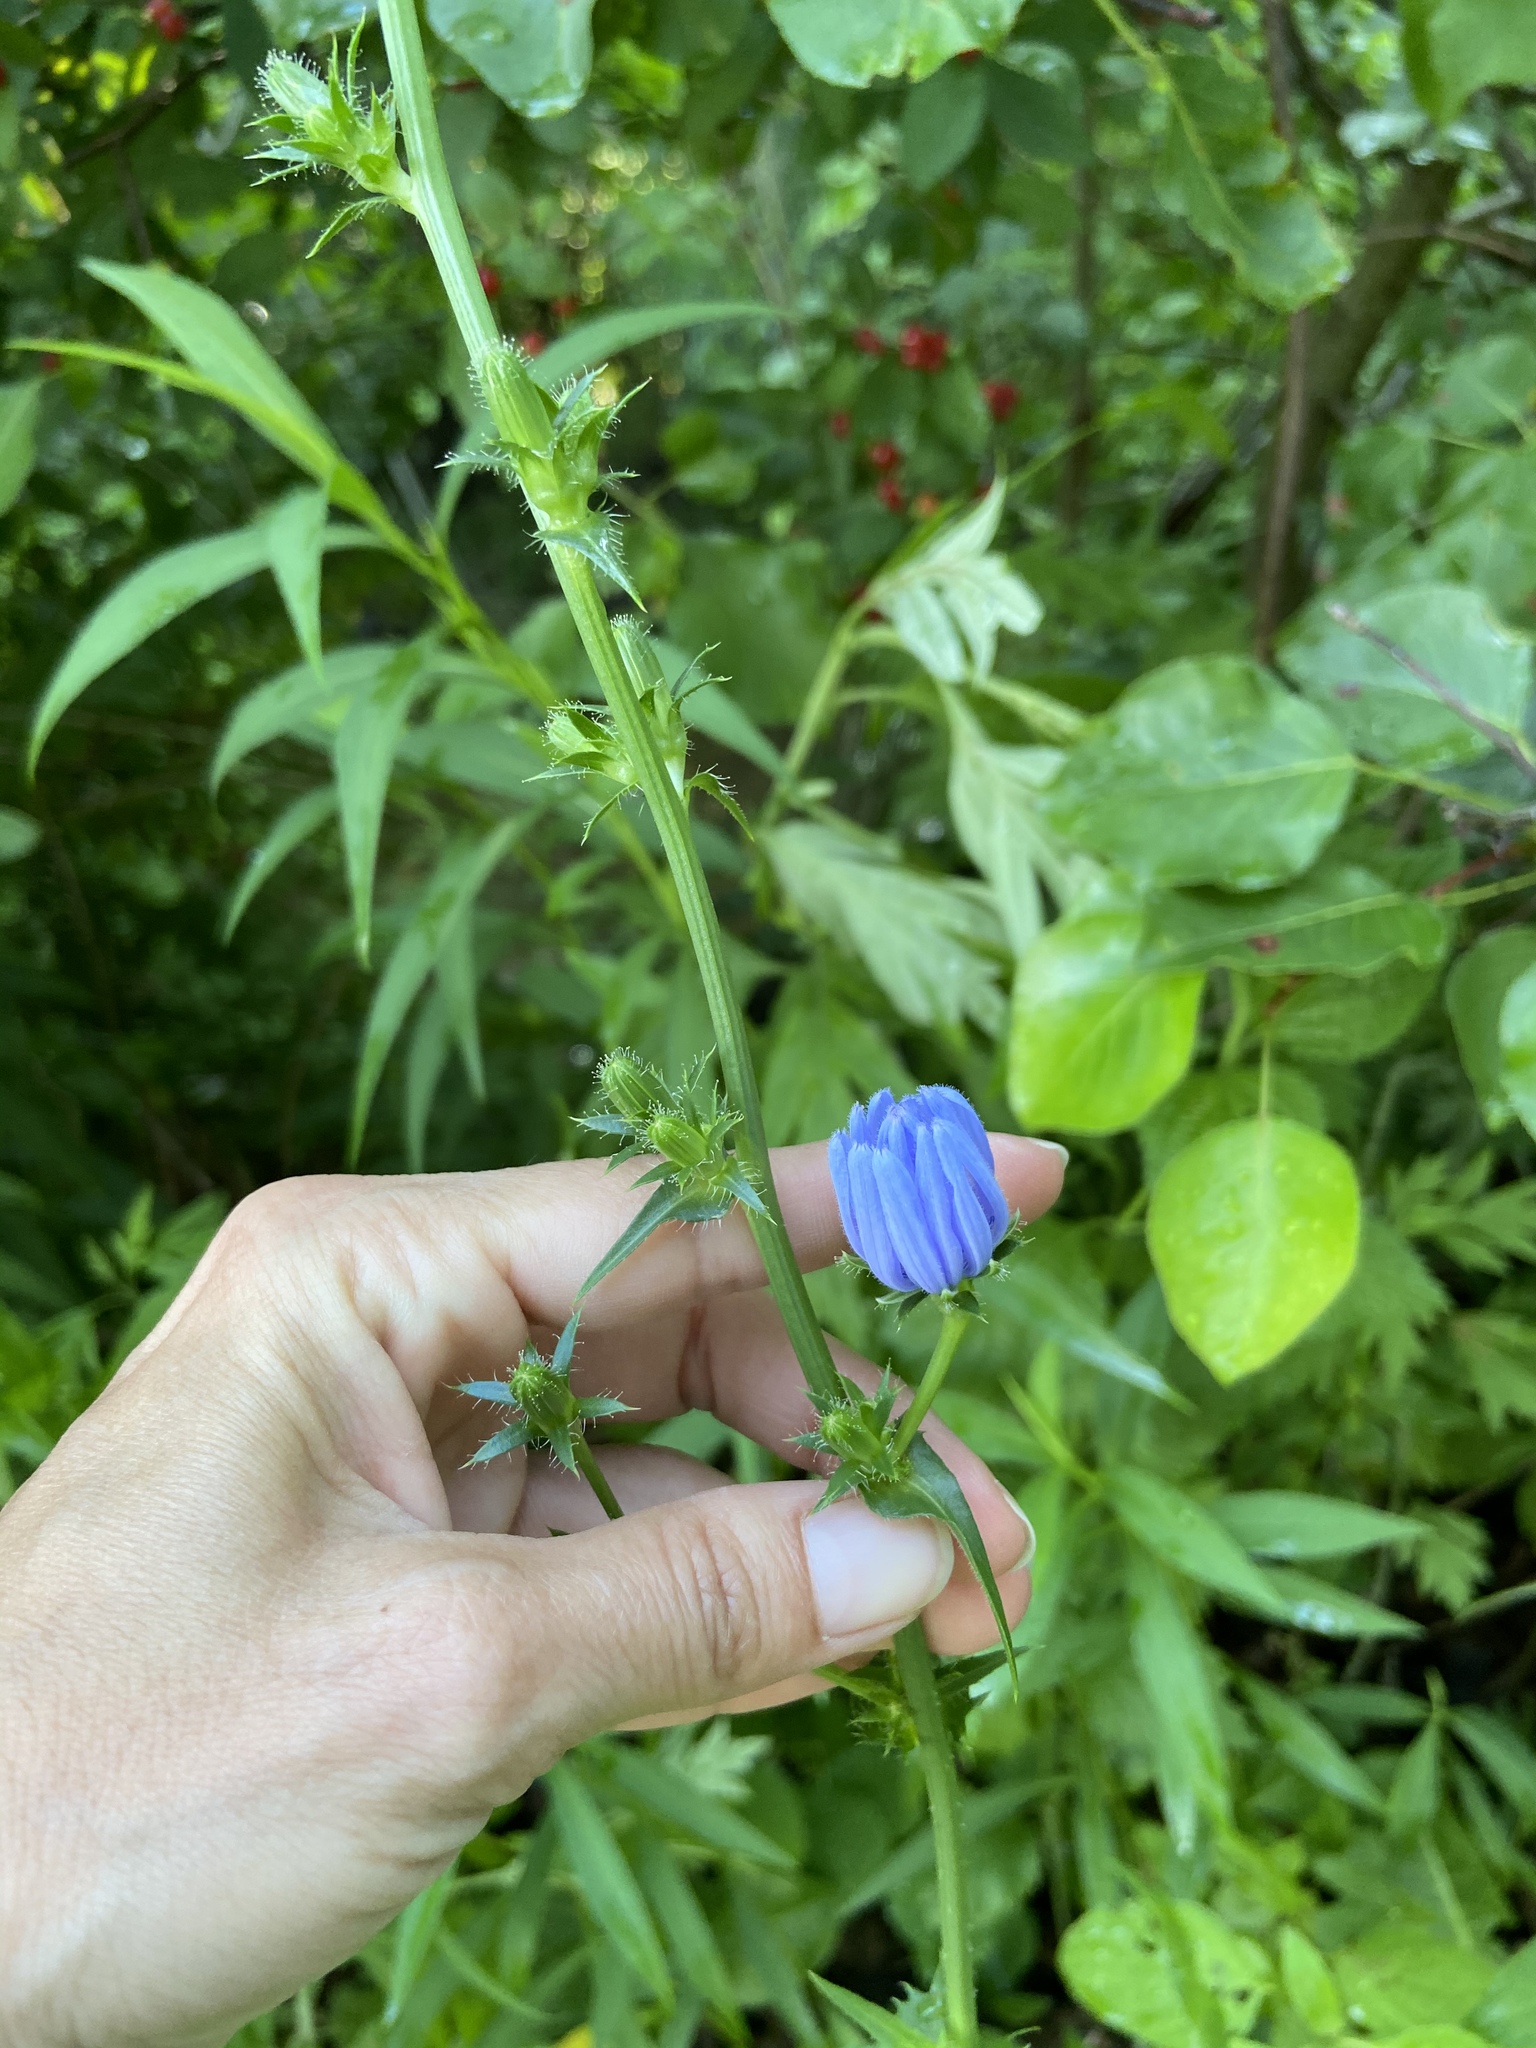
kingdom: Plantae
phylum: Tracheophyta
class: Magnoliopsida
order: Asterales
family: Asteraceae
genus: Cichorium
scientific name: Cichorium intybus
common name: Chicory
